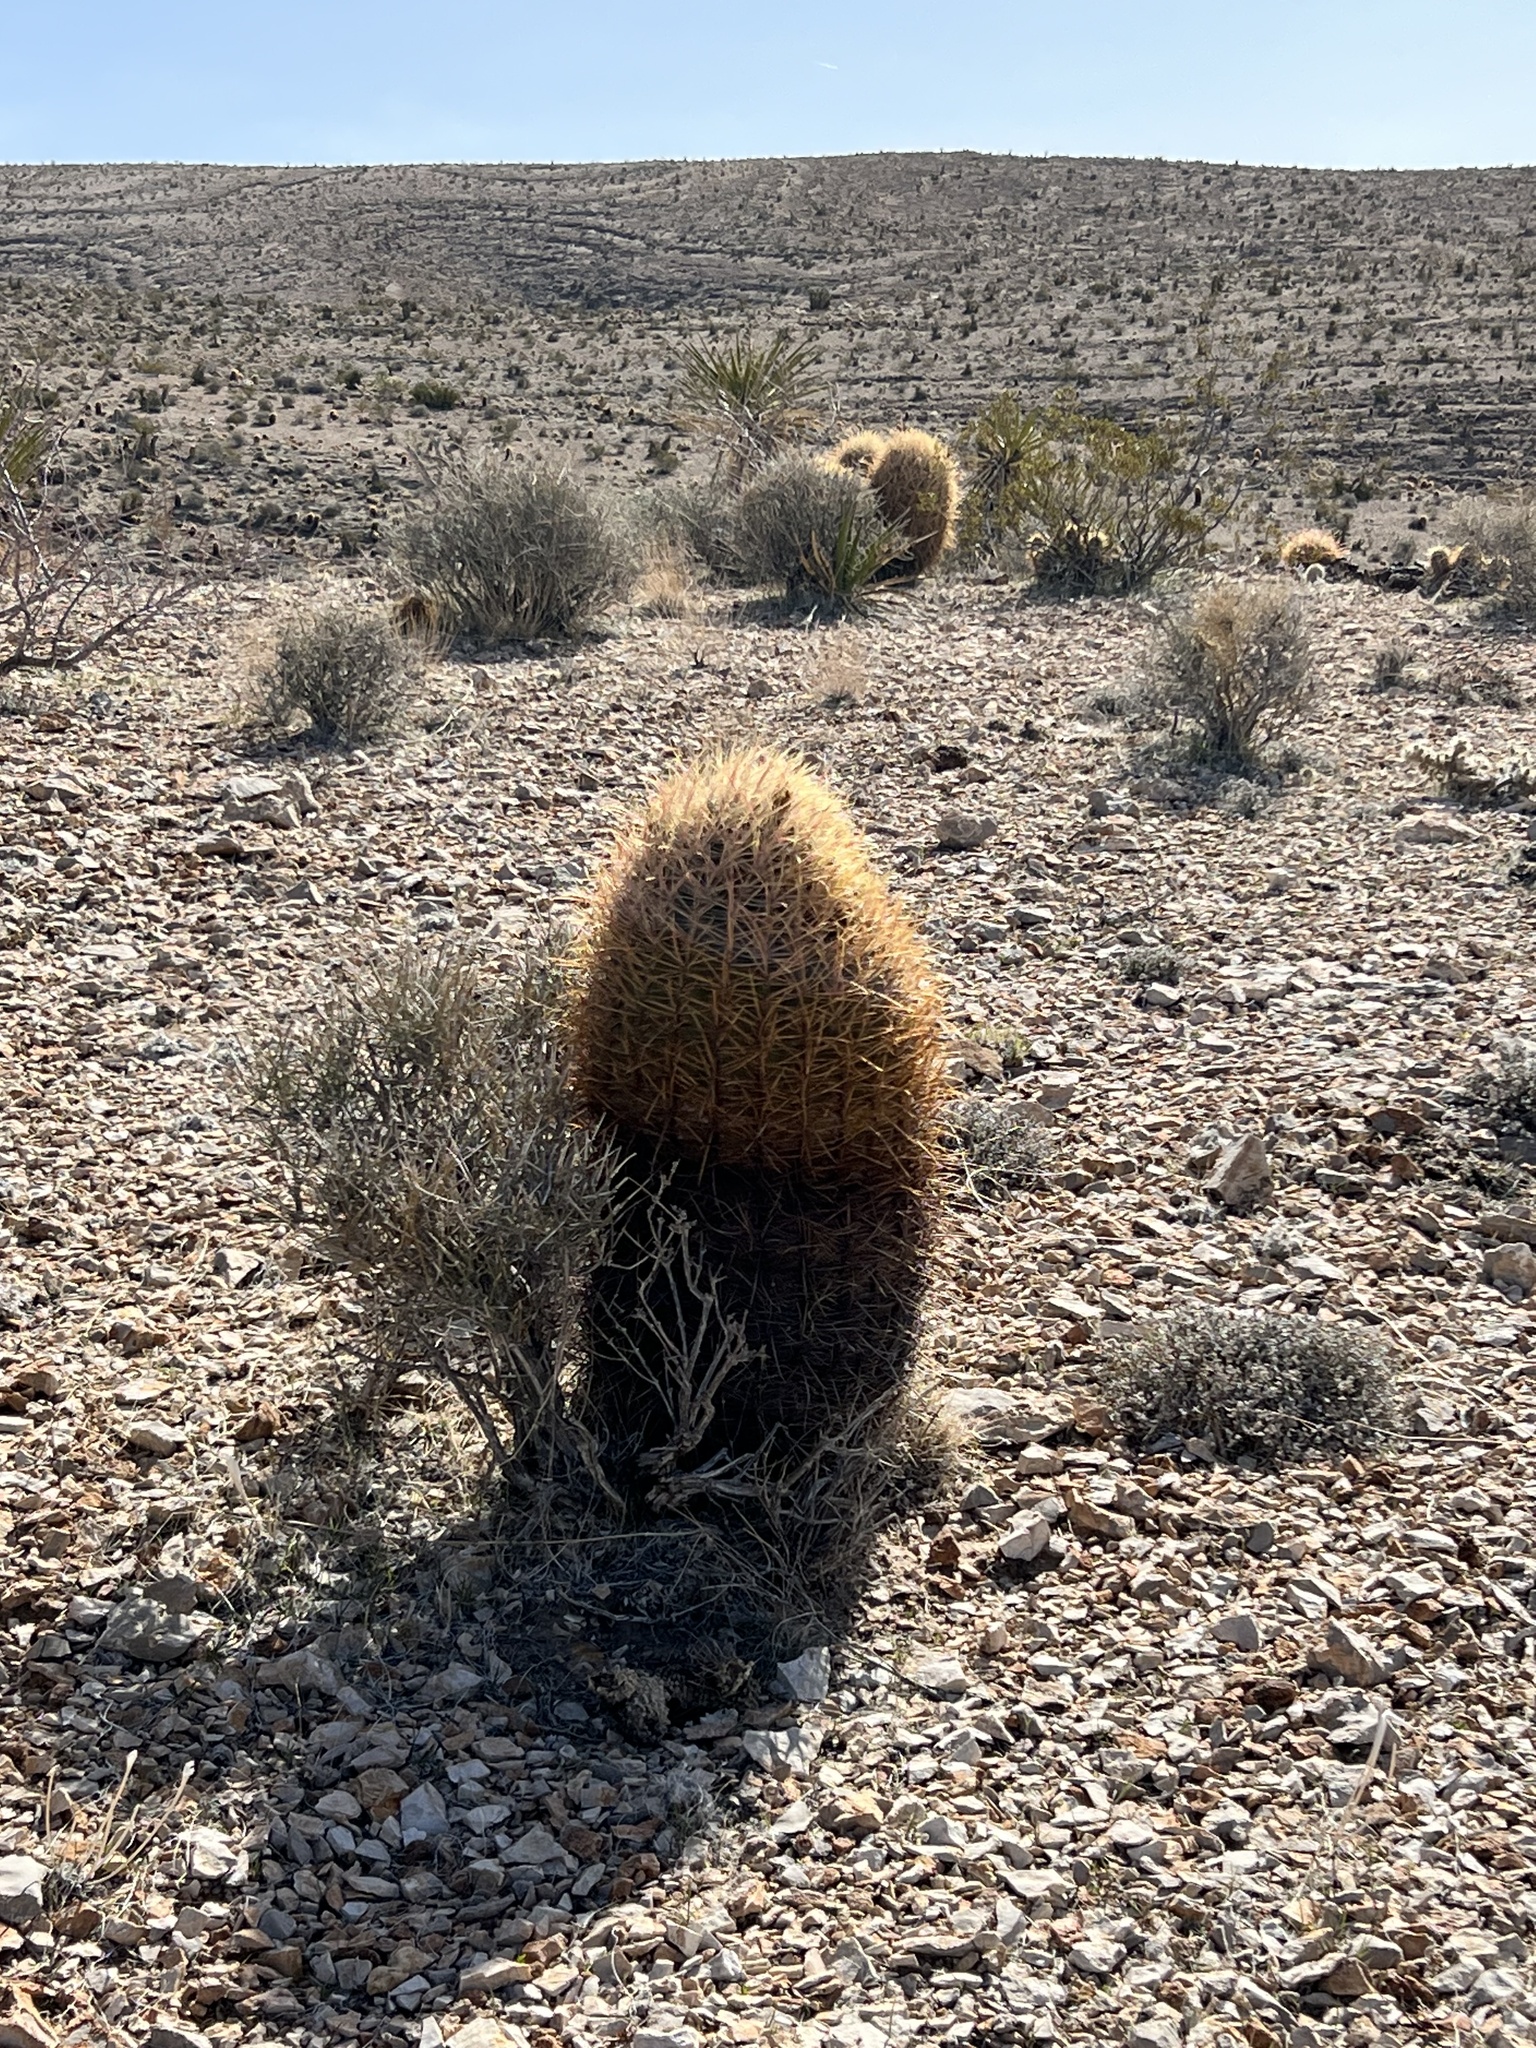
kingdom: Plantae
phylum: Tracheophyta
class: Magnoliopsida
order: Caryophyllales
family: Cactaceae
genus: Ferocactus
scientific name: Ferocactus cylindraceus
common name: California barrel cactus
